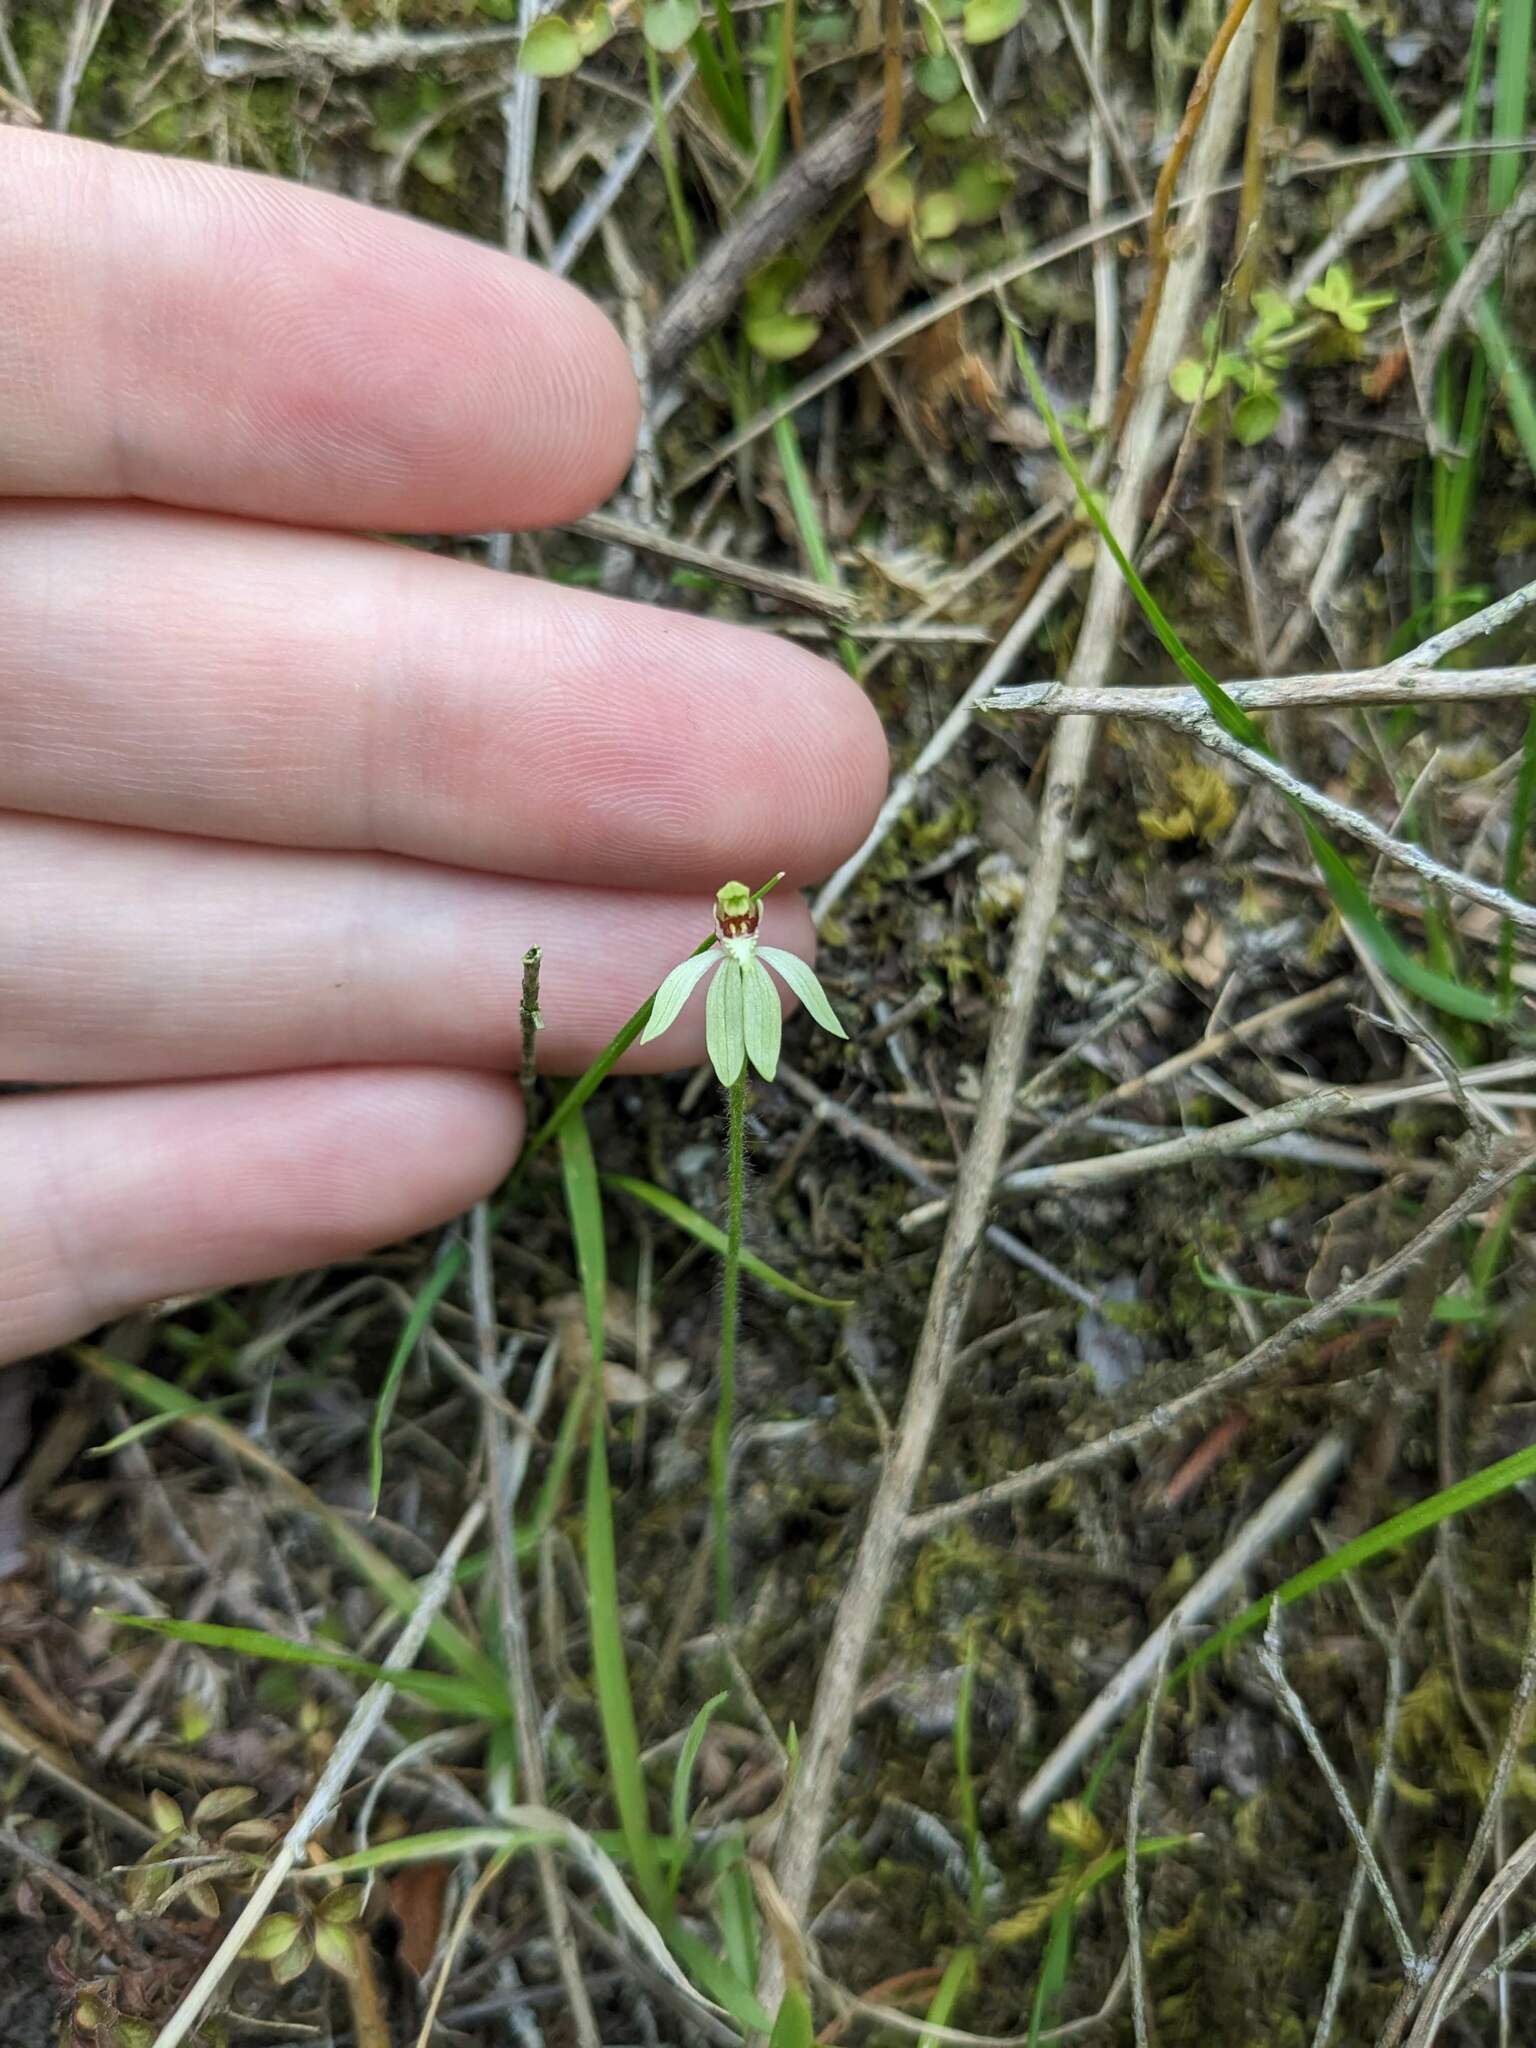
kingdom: Plantae
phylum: Tracheophyta
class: Liliopsida
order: Asparagales
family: Orchidaceae
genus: Caladenia
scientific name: Caladenia chlorostyla
